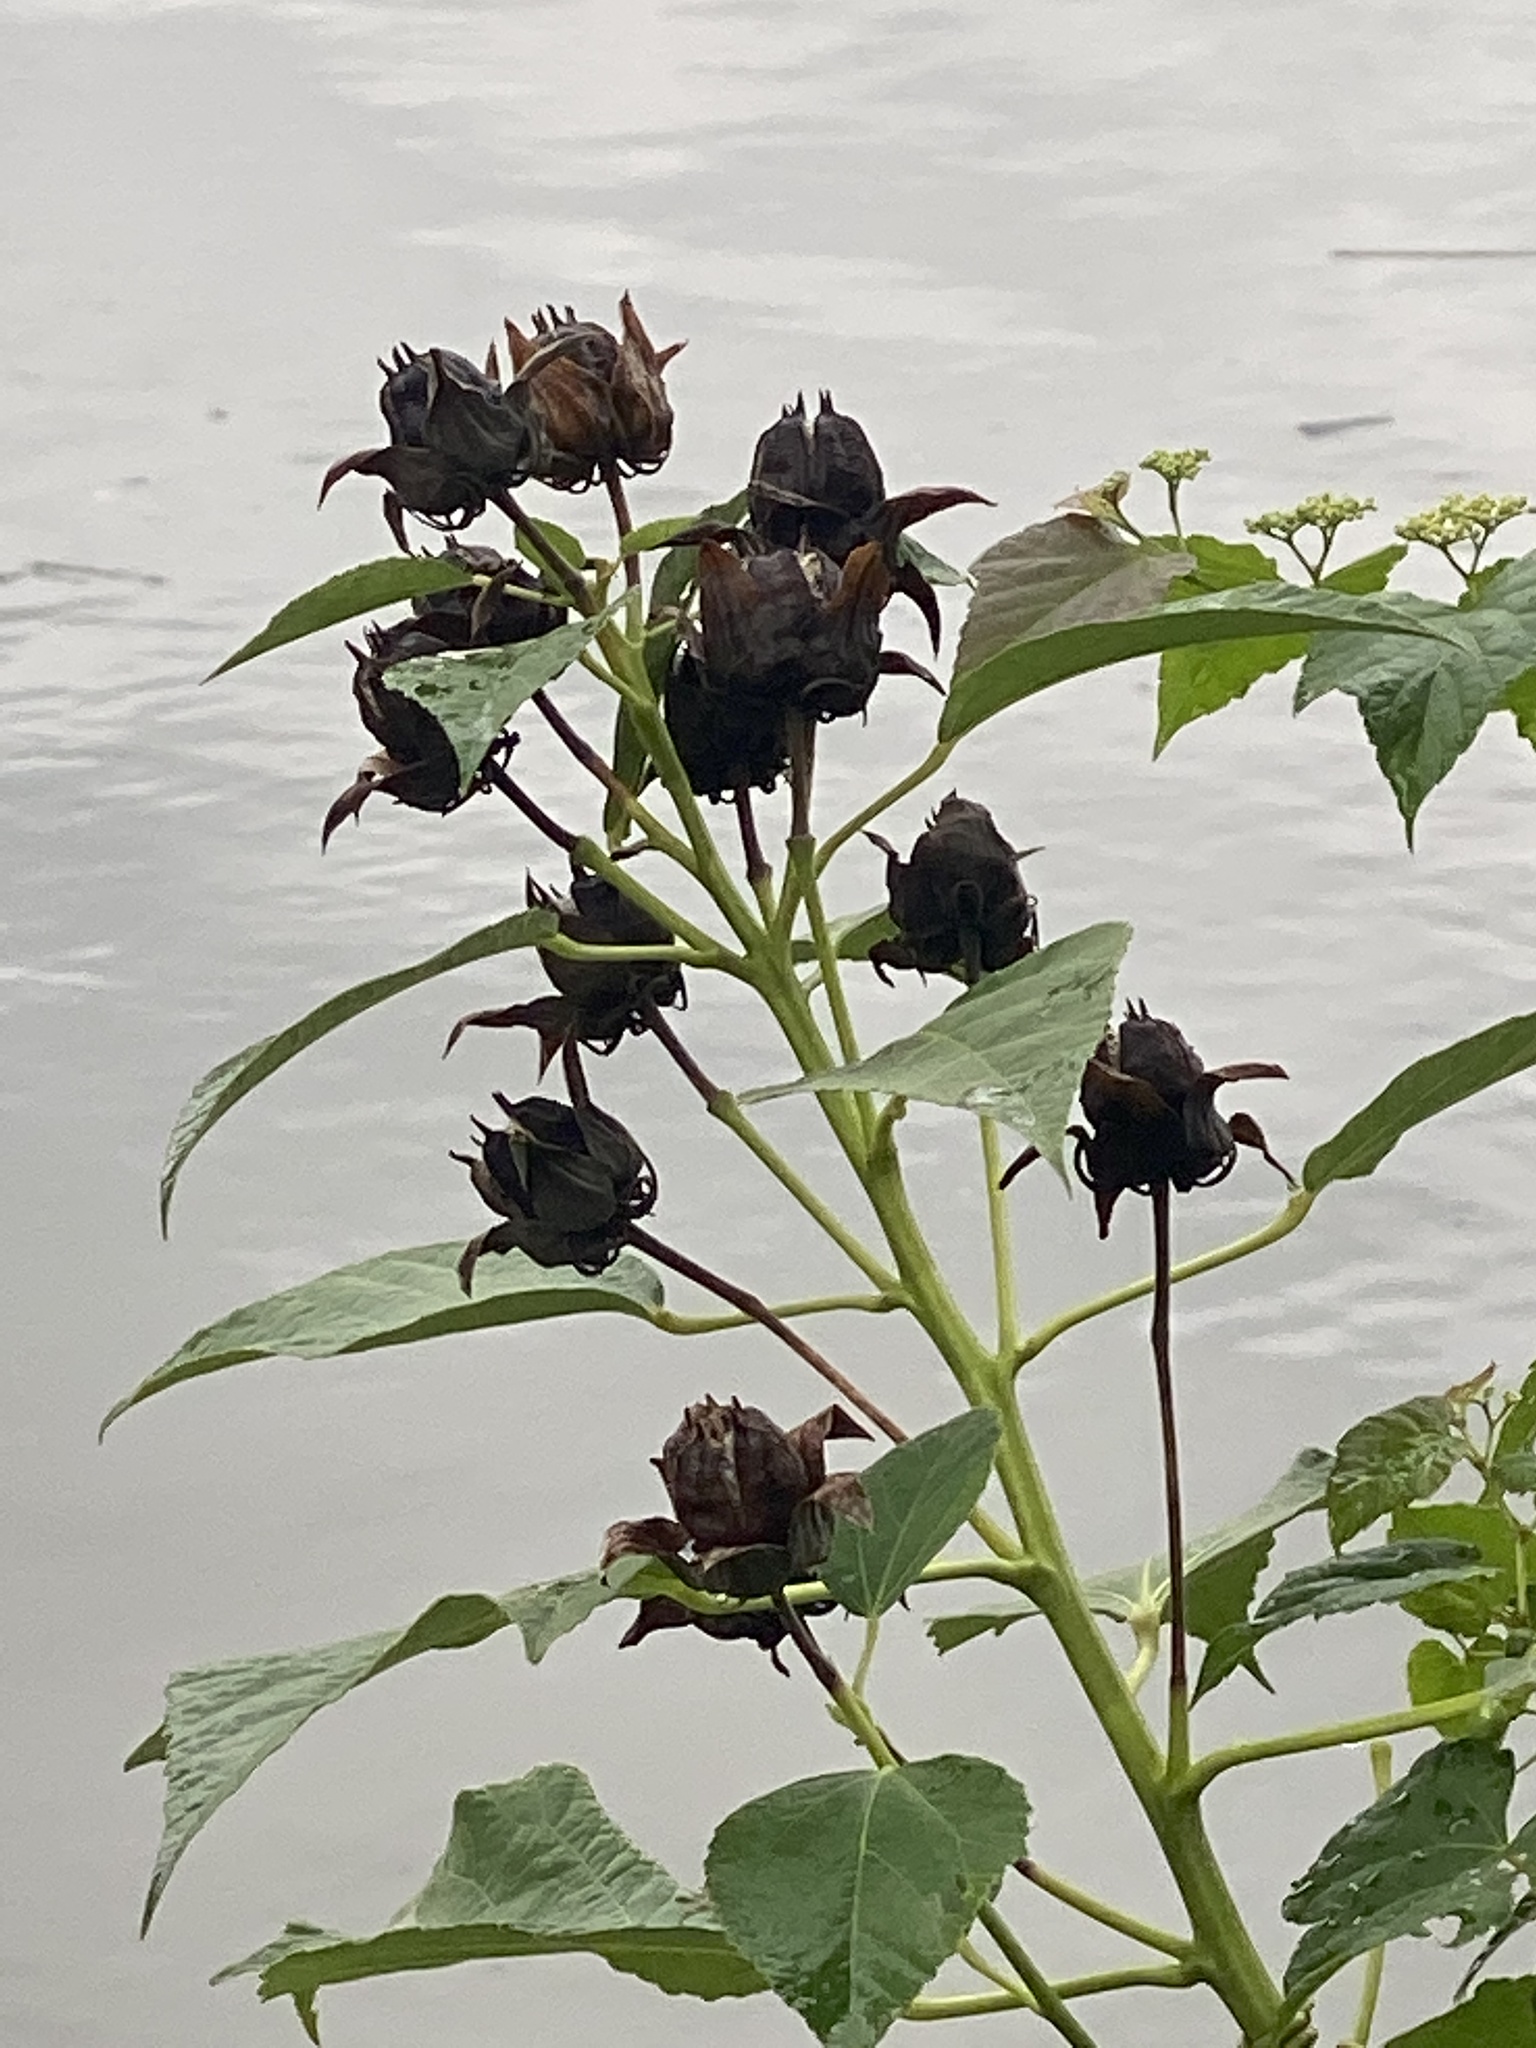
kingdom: Plantae
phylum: Tracheophyta
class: Magnoliopsida
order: Malvales
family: Malvaceae
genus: Hibiscus
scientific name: Hibiscus moscheutos
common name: Common rose-mallow
